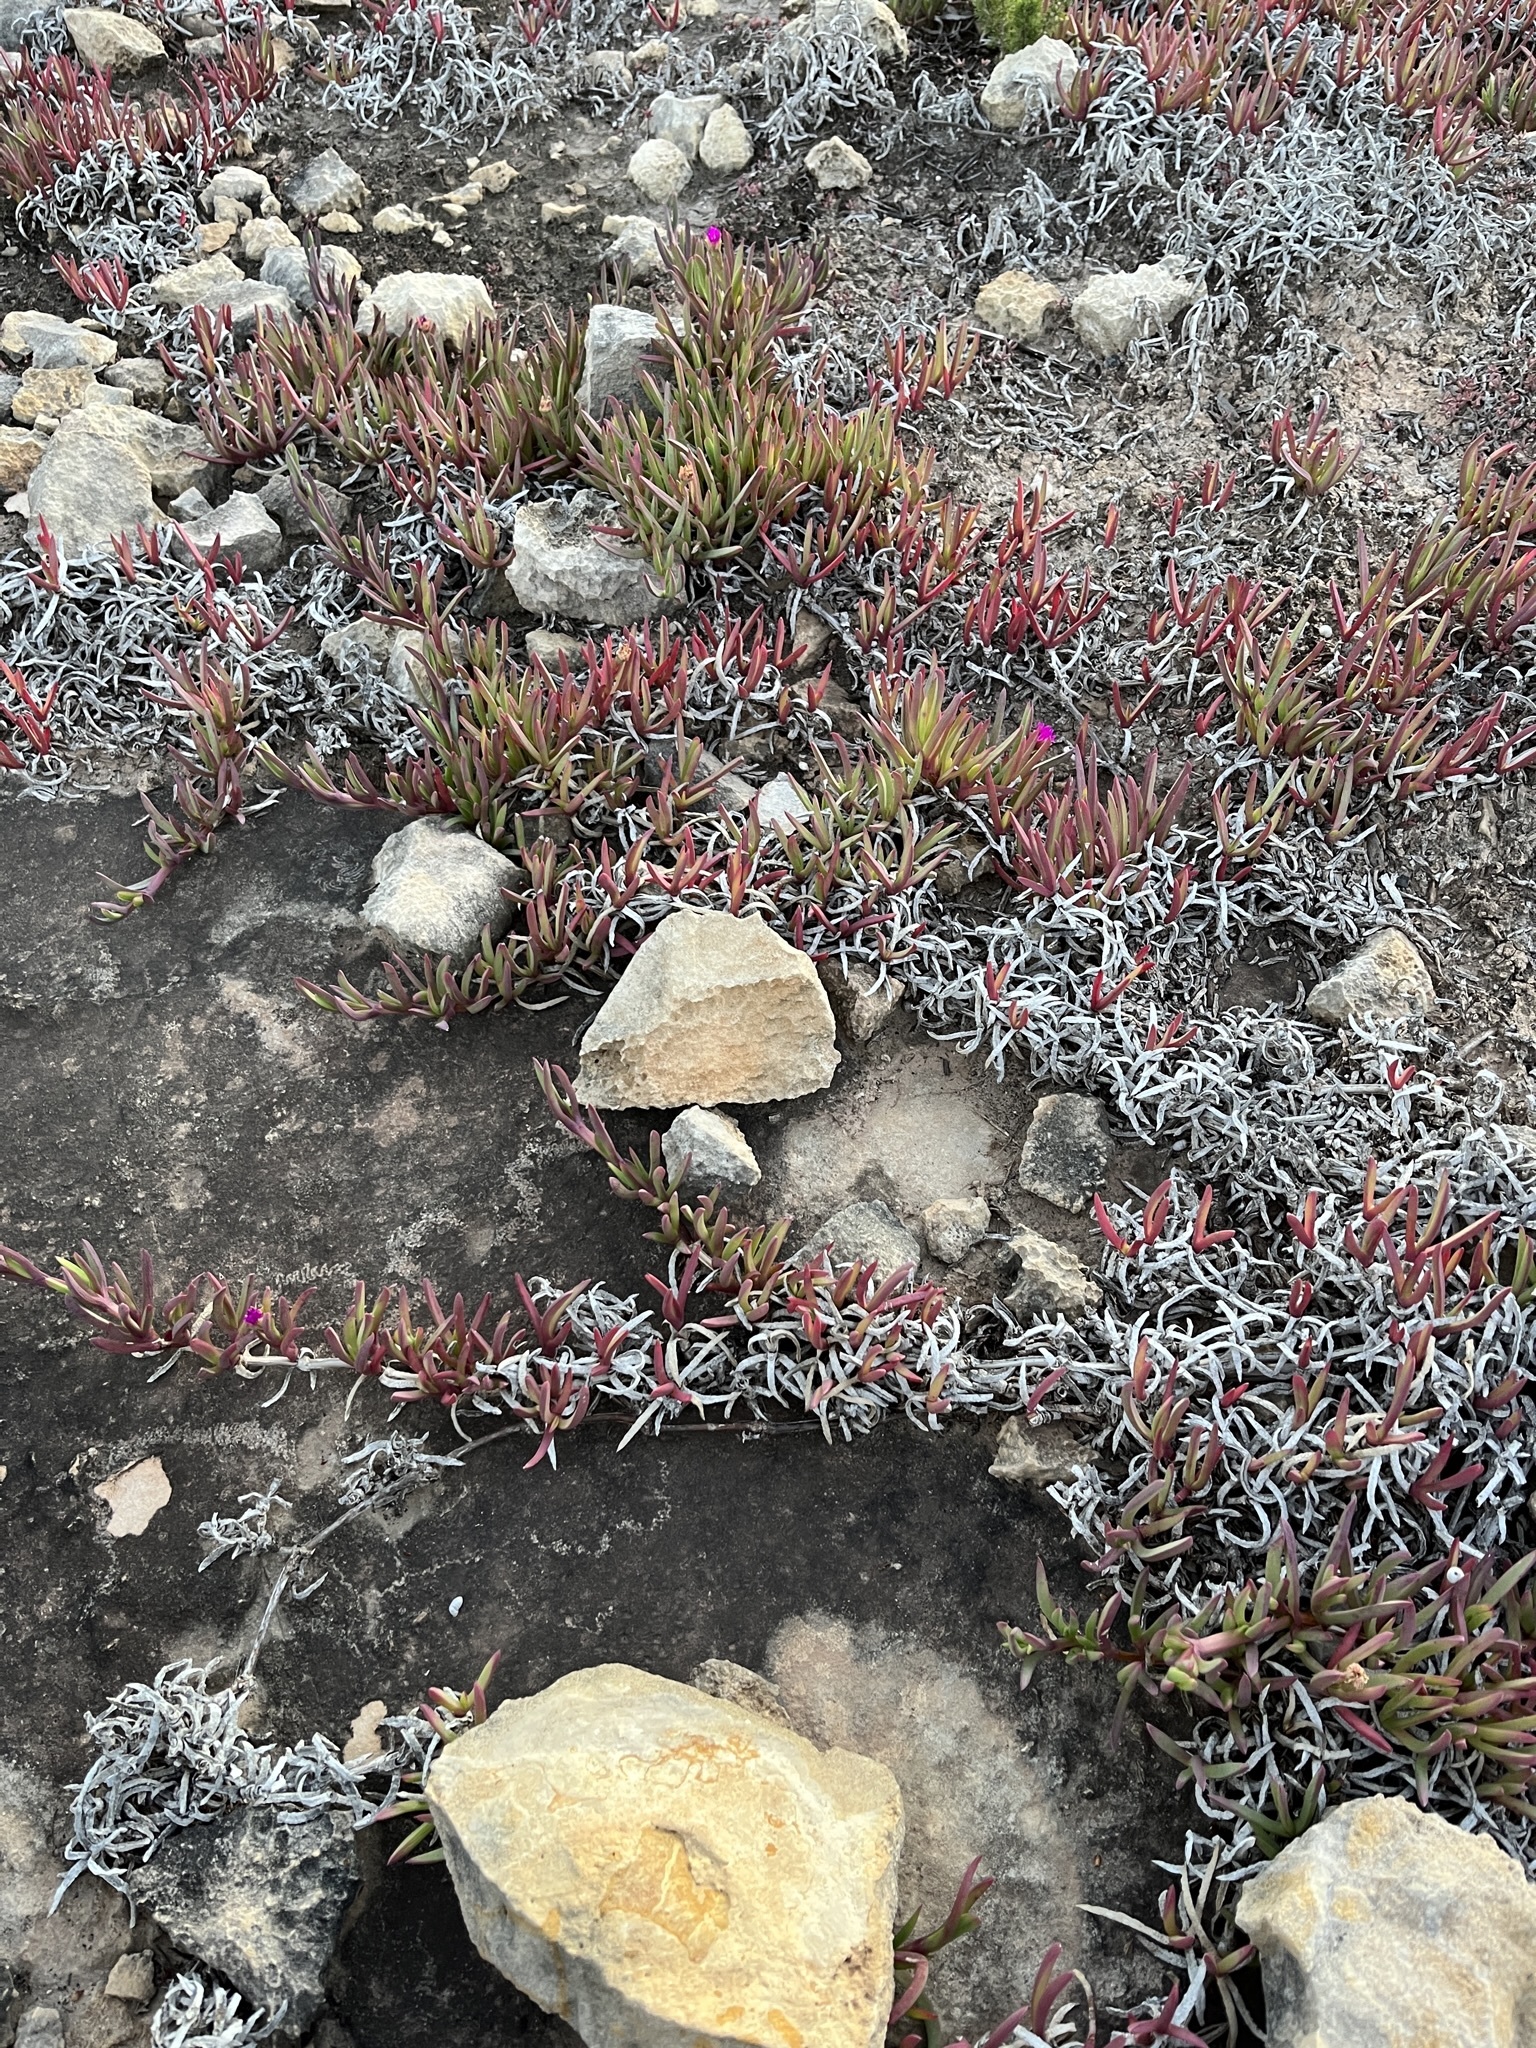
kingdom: Plantae
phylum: Tracheophyta
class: Magnoliopsida
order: Caryophyllales
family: Aizoaceae
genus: Ruschia
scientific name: Ruschia calcicola
